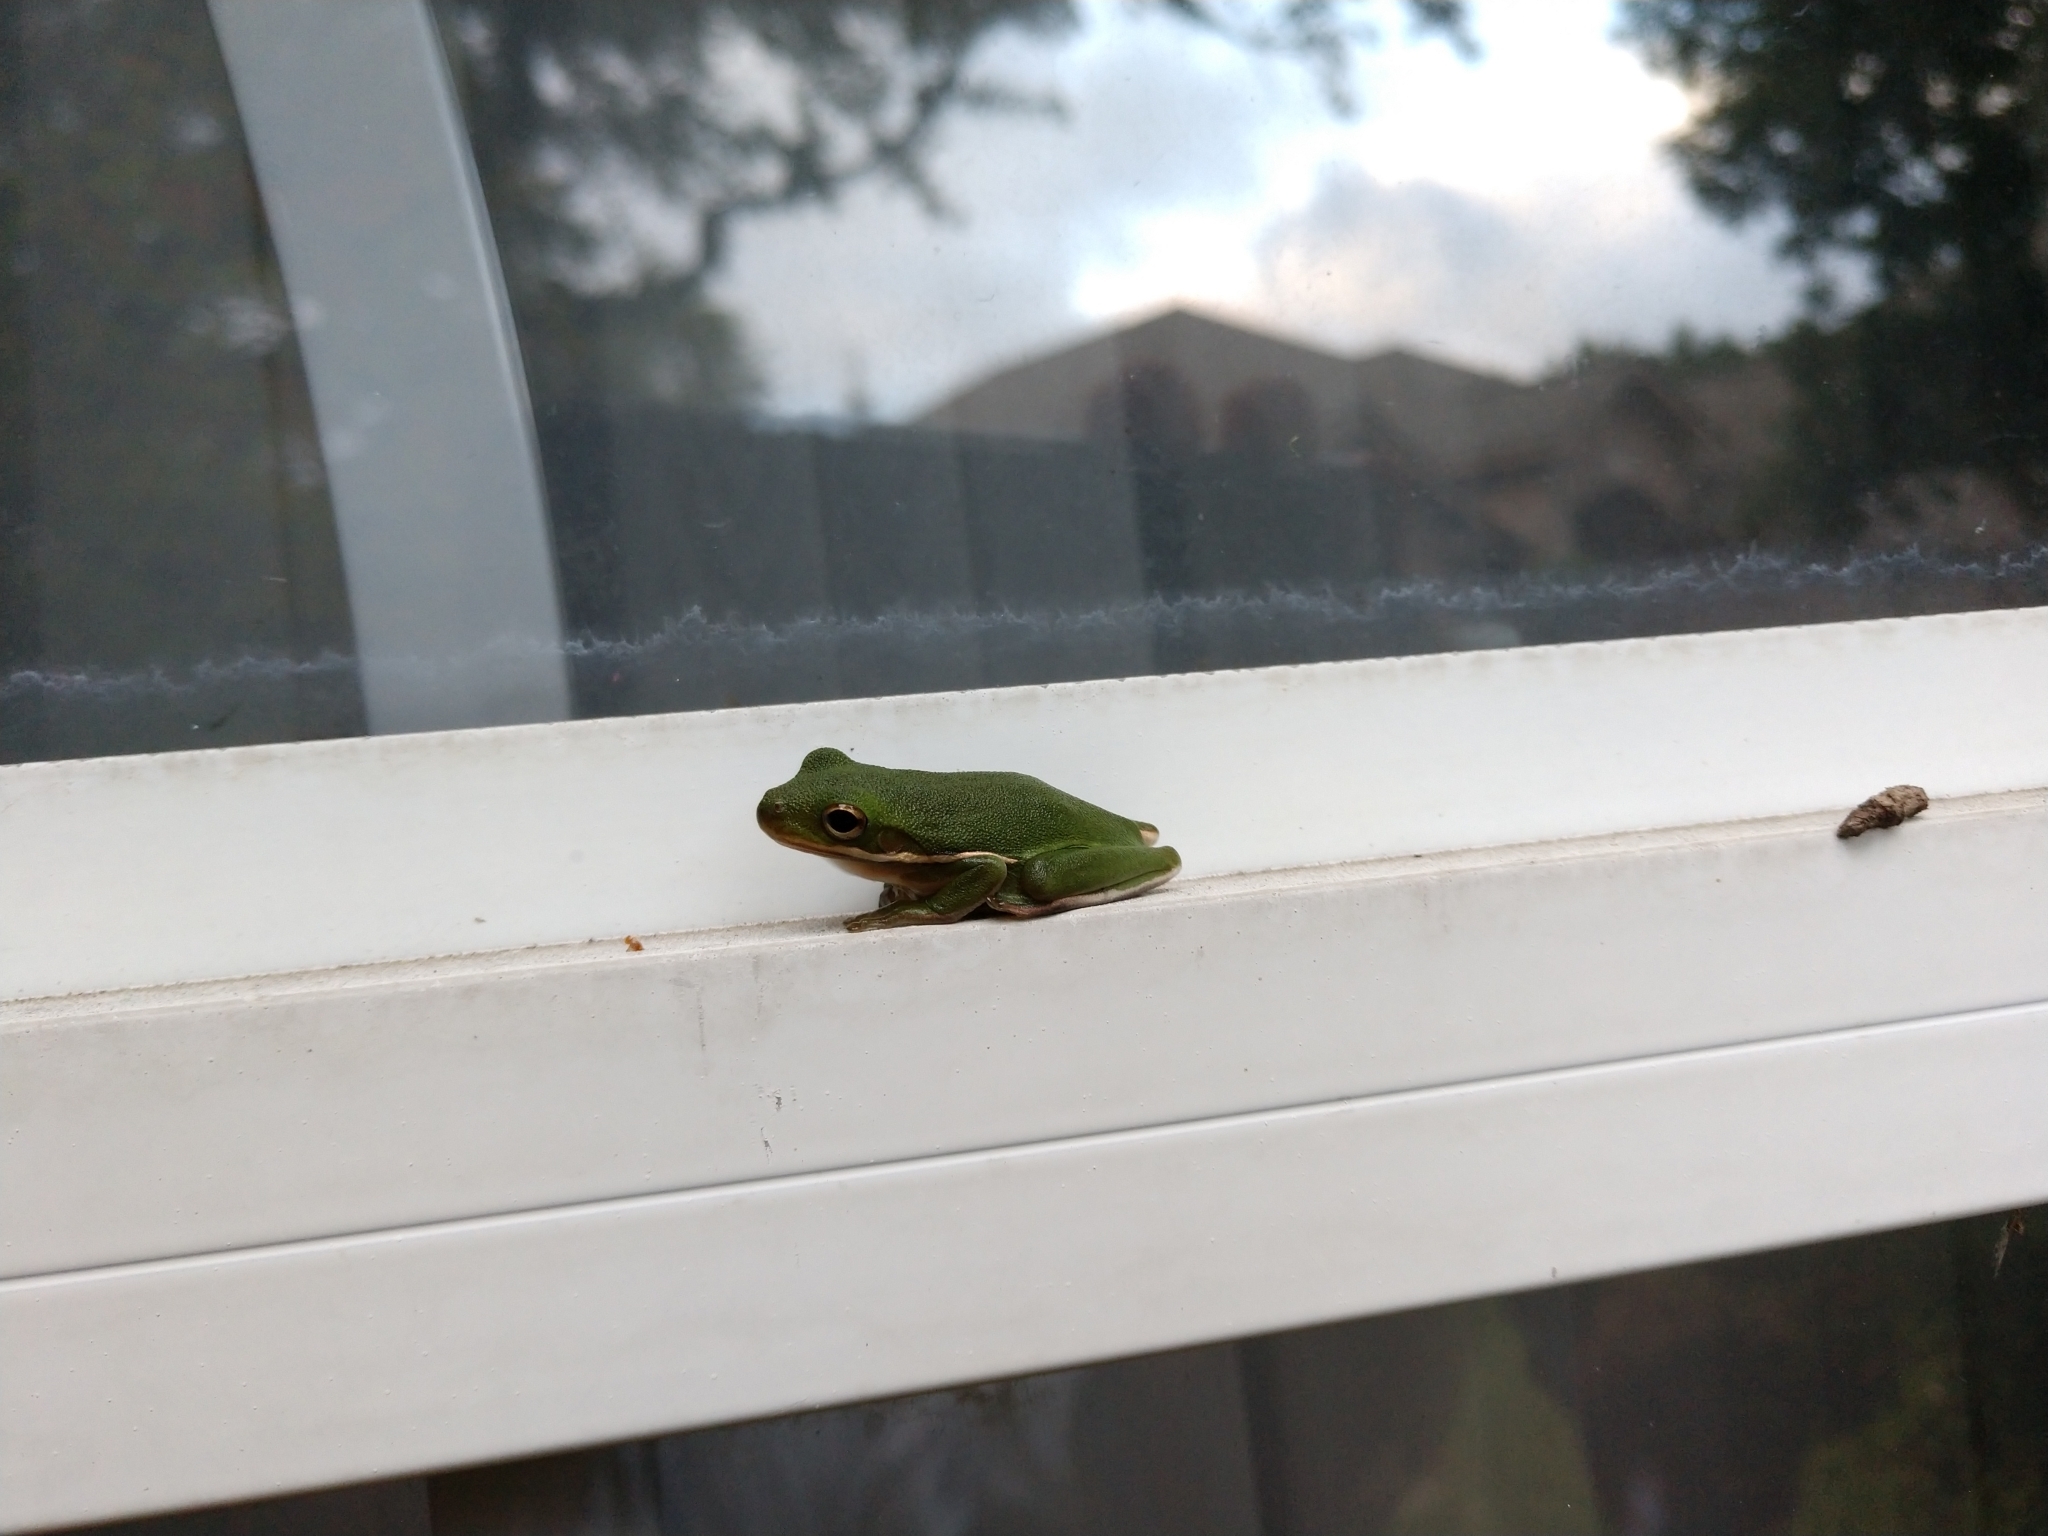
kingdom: Animalia
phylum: Chordata
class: Amphibia
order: Anura
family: Hylidae
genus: Dryophytes
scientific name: Dryophytes cinereus
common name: Green treefrog
